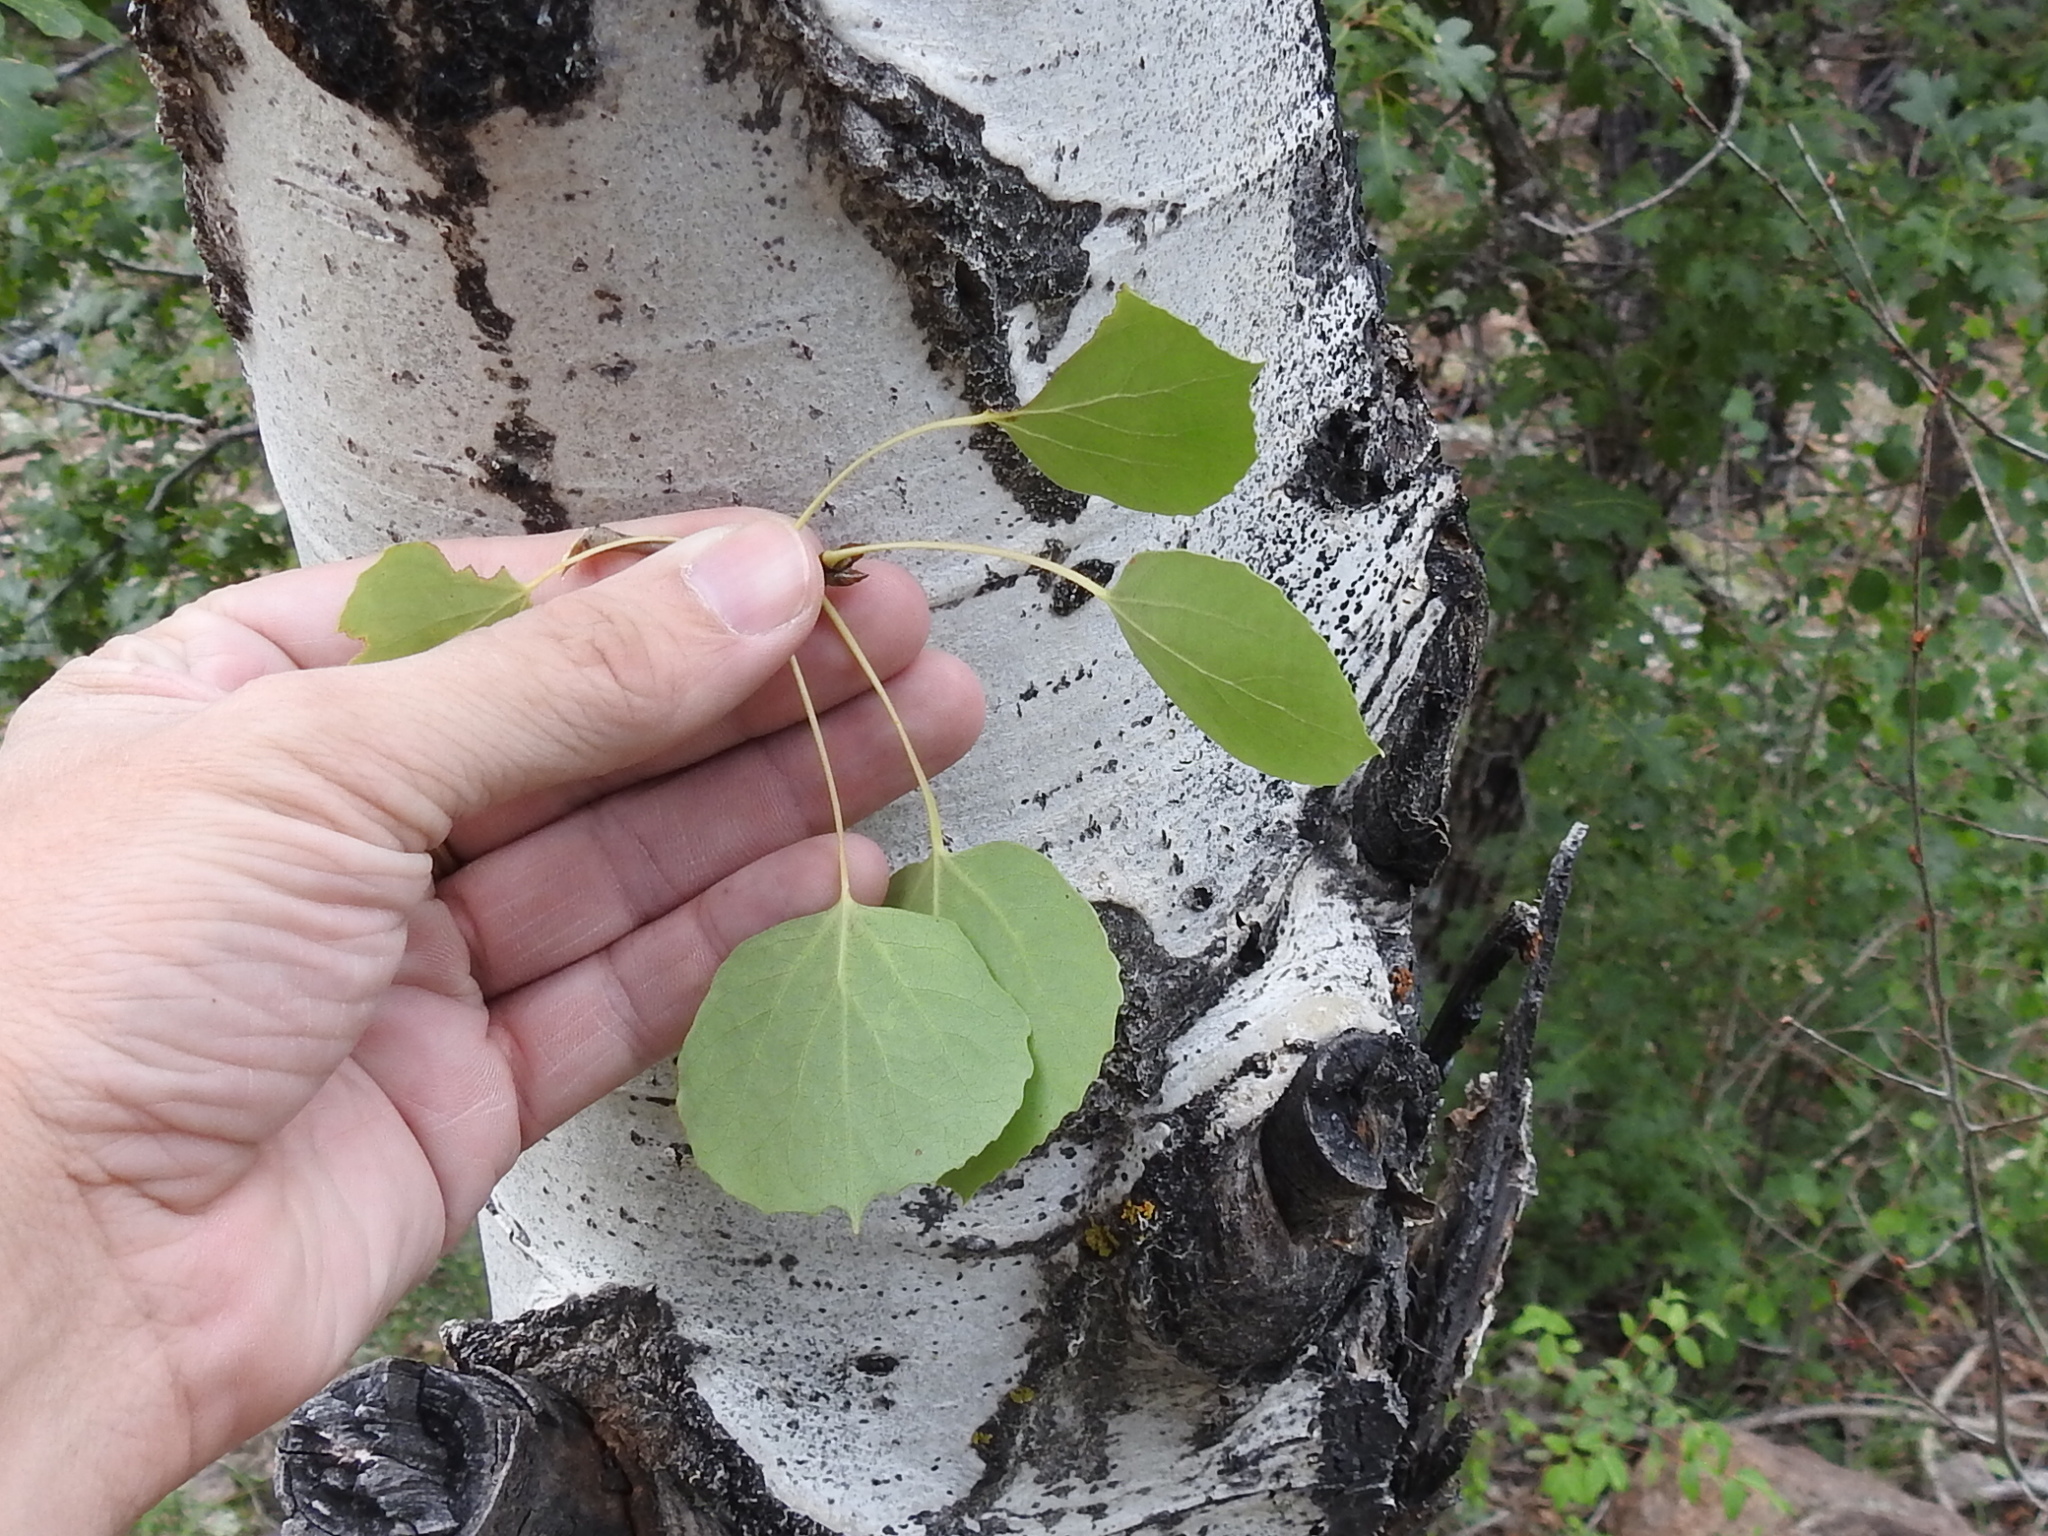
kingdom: Plantae
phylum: Tracheophyta
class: Magnoliopsida
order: Malpighiales
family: Salicaceae
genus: Populus
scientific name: Populus tremuloides
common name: Quaking aspen
